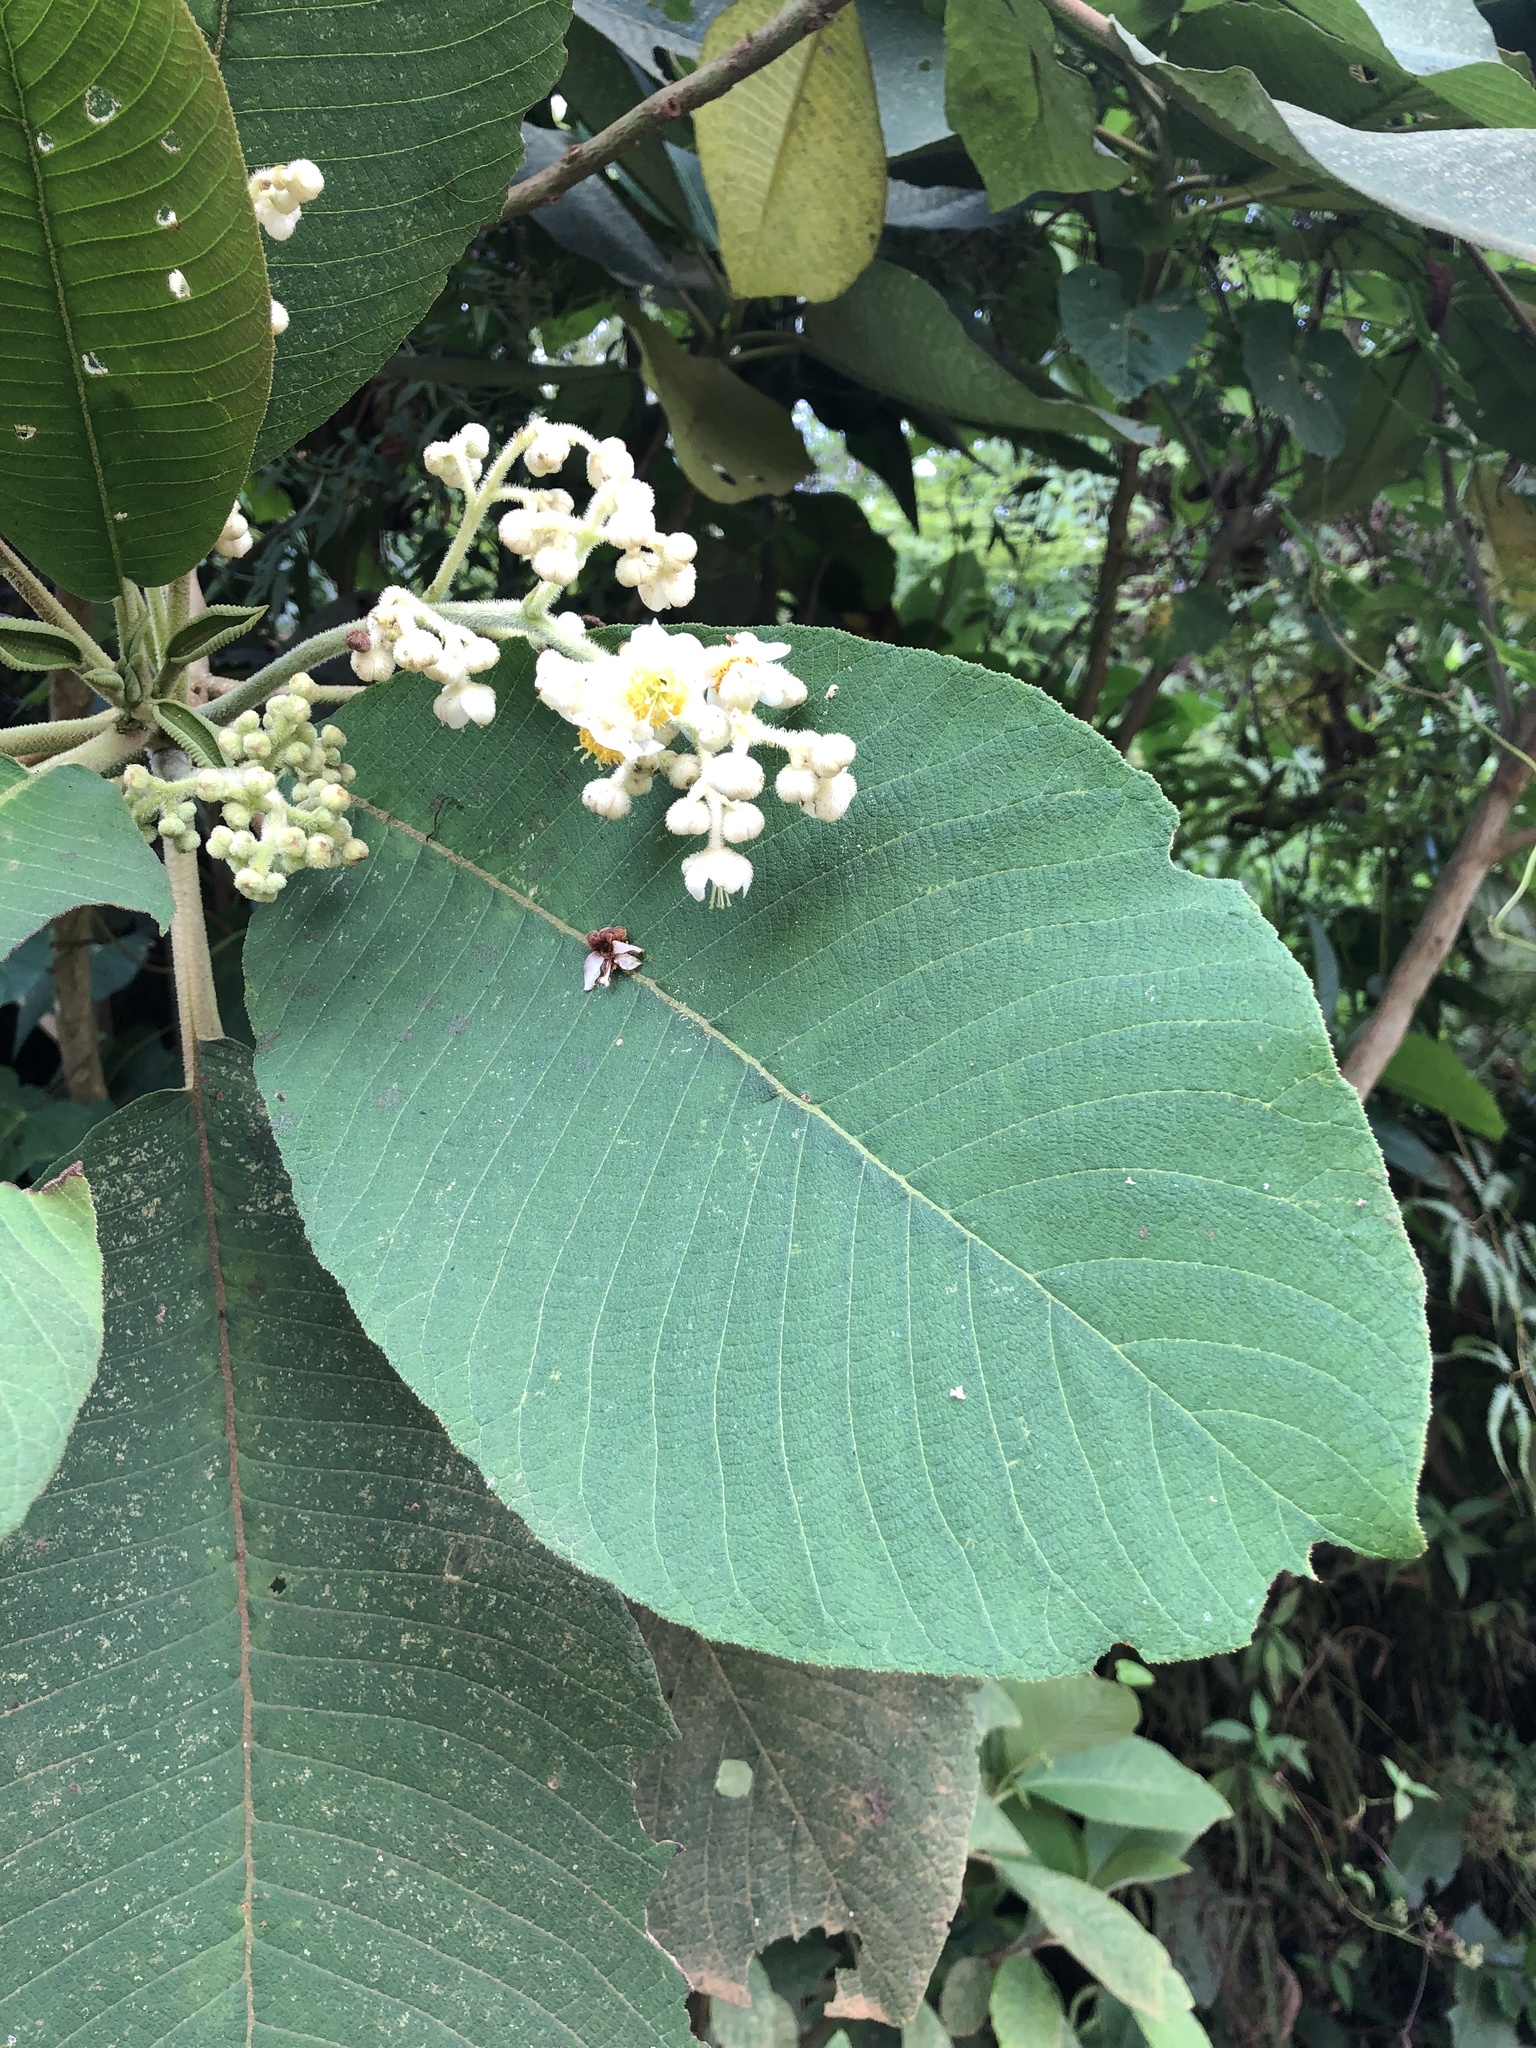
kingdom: Plantae
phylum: Tracheophyta
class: Magnoliopsida
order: Ericales
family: Actinidiaceae
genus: Saurauia
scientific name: Saurauia tomentosa
